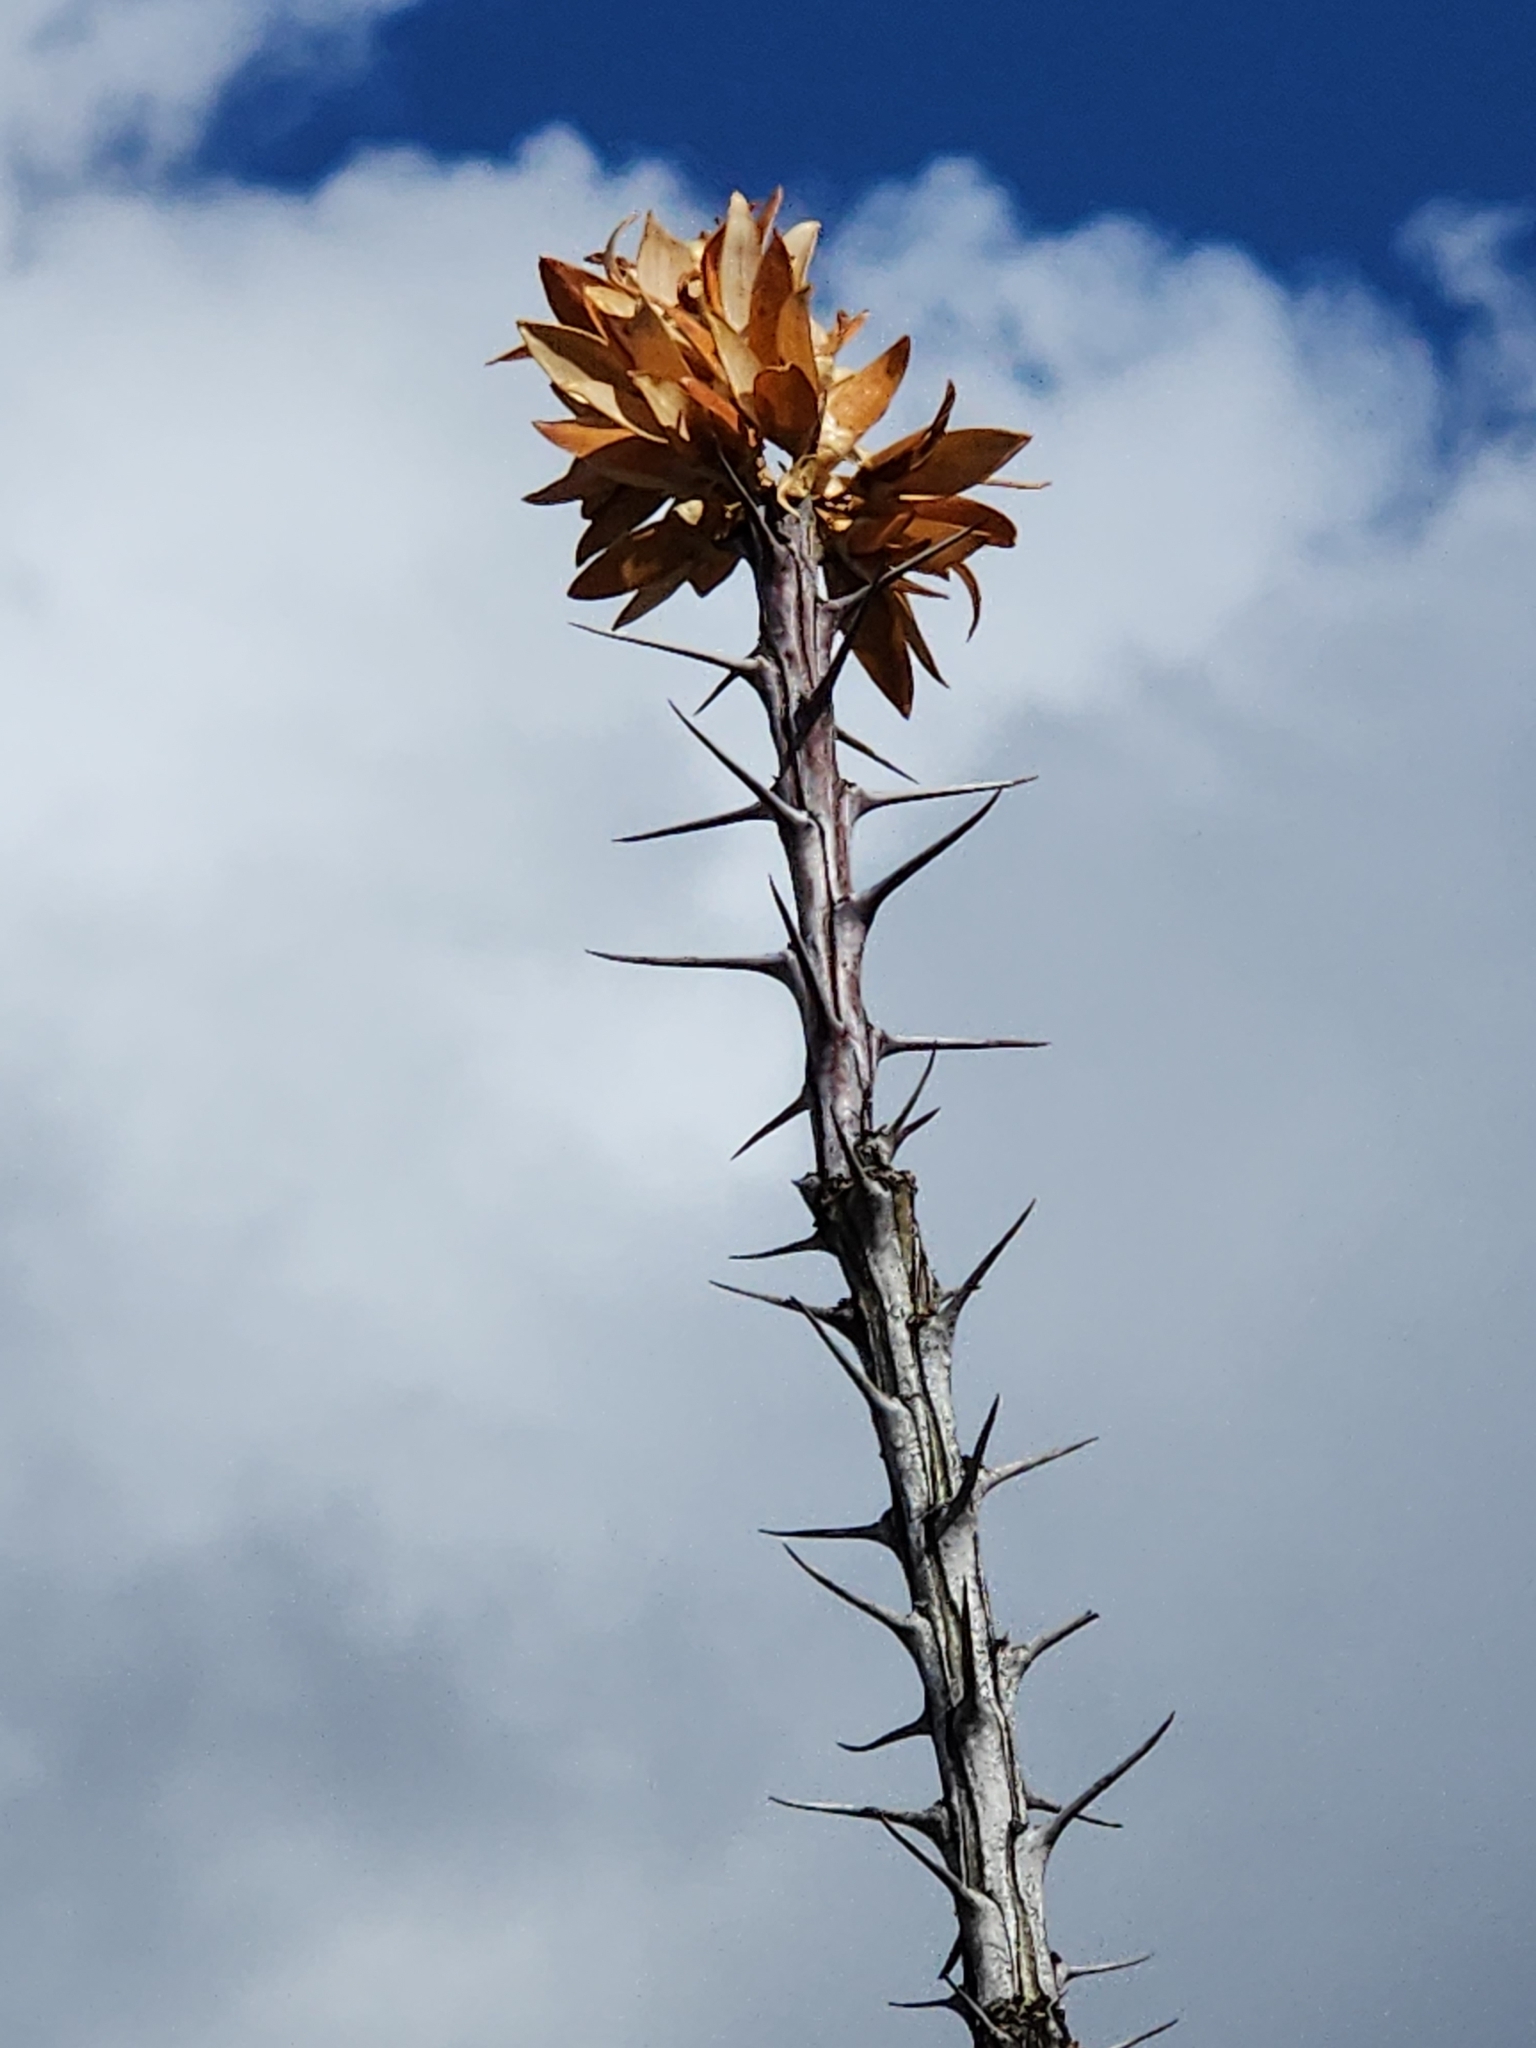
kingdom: Plantae
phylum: Tracheophyta
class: Magnoliopsida
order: Ericales
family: Fouquieriaceae
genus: Fouquieria
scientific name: Fouquieria splendens
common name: Vine-cactus
